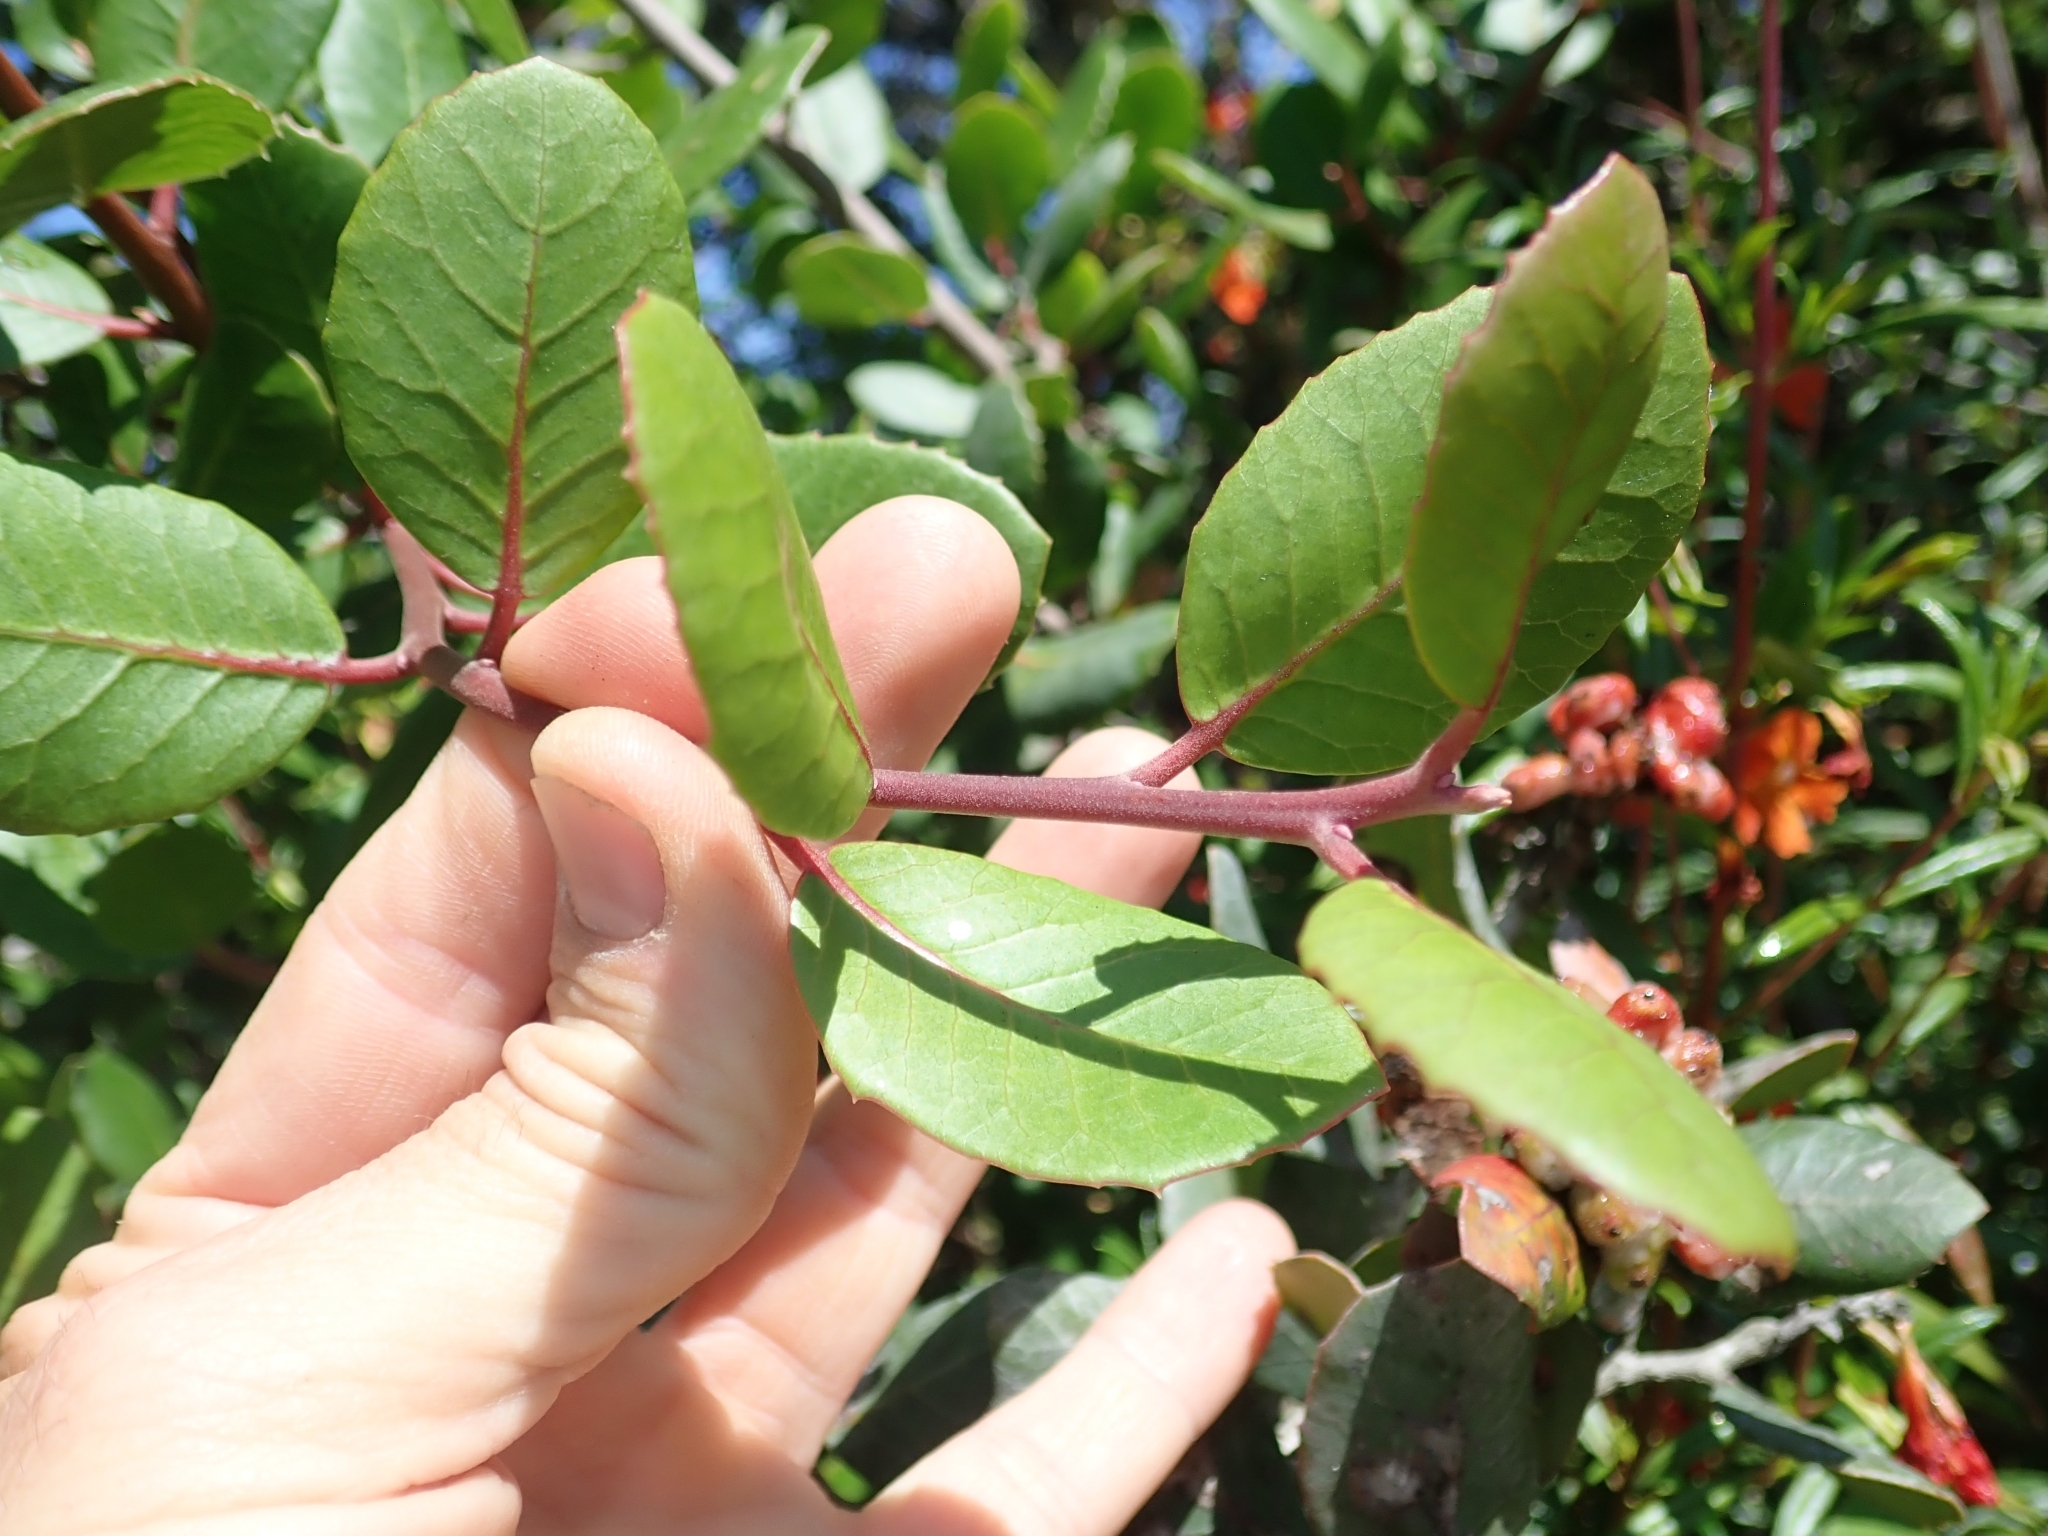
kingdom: Plantae
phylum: Tracheophyta
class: Magnoliopsida
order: Sapindales
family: Anacardiaceae
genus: Rhus
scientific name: Rhus integrifolia
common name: Lemonade sumac
